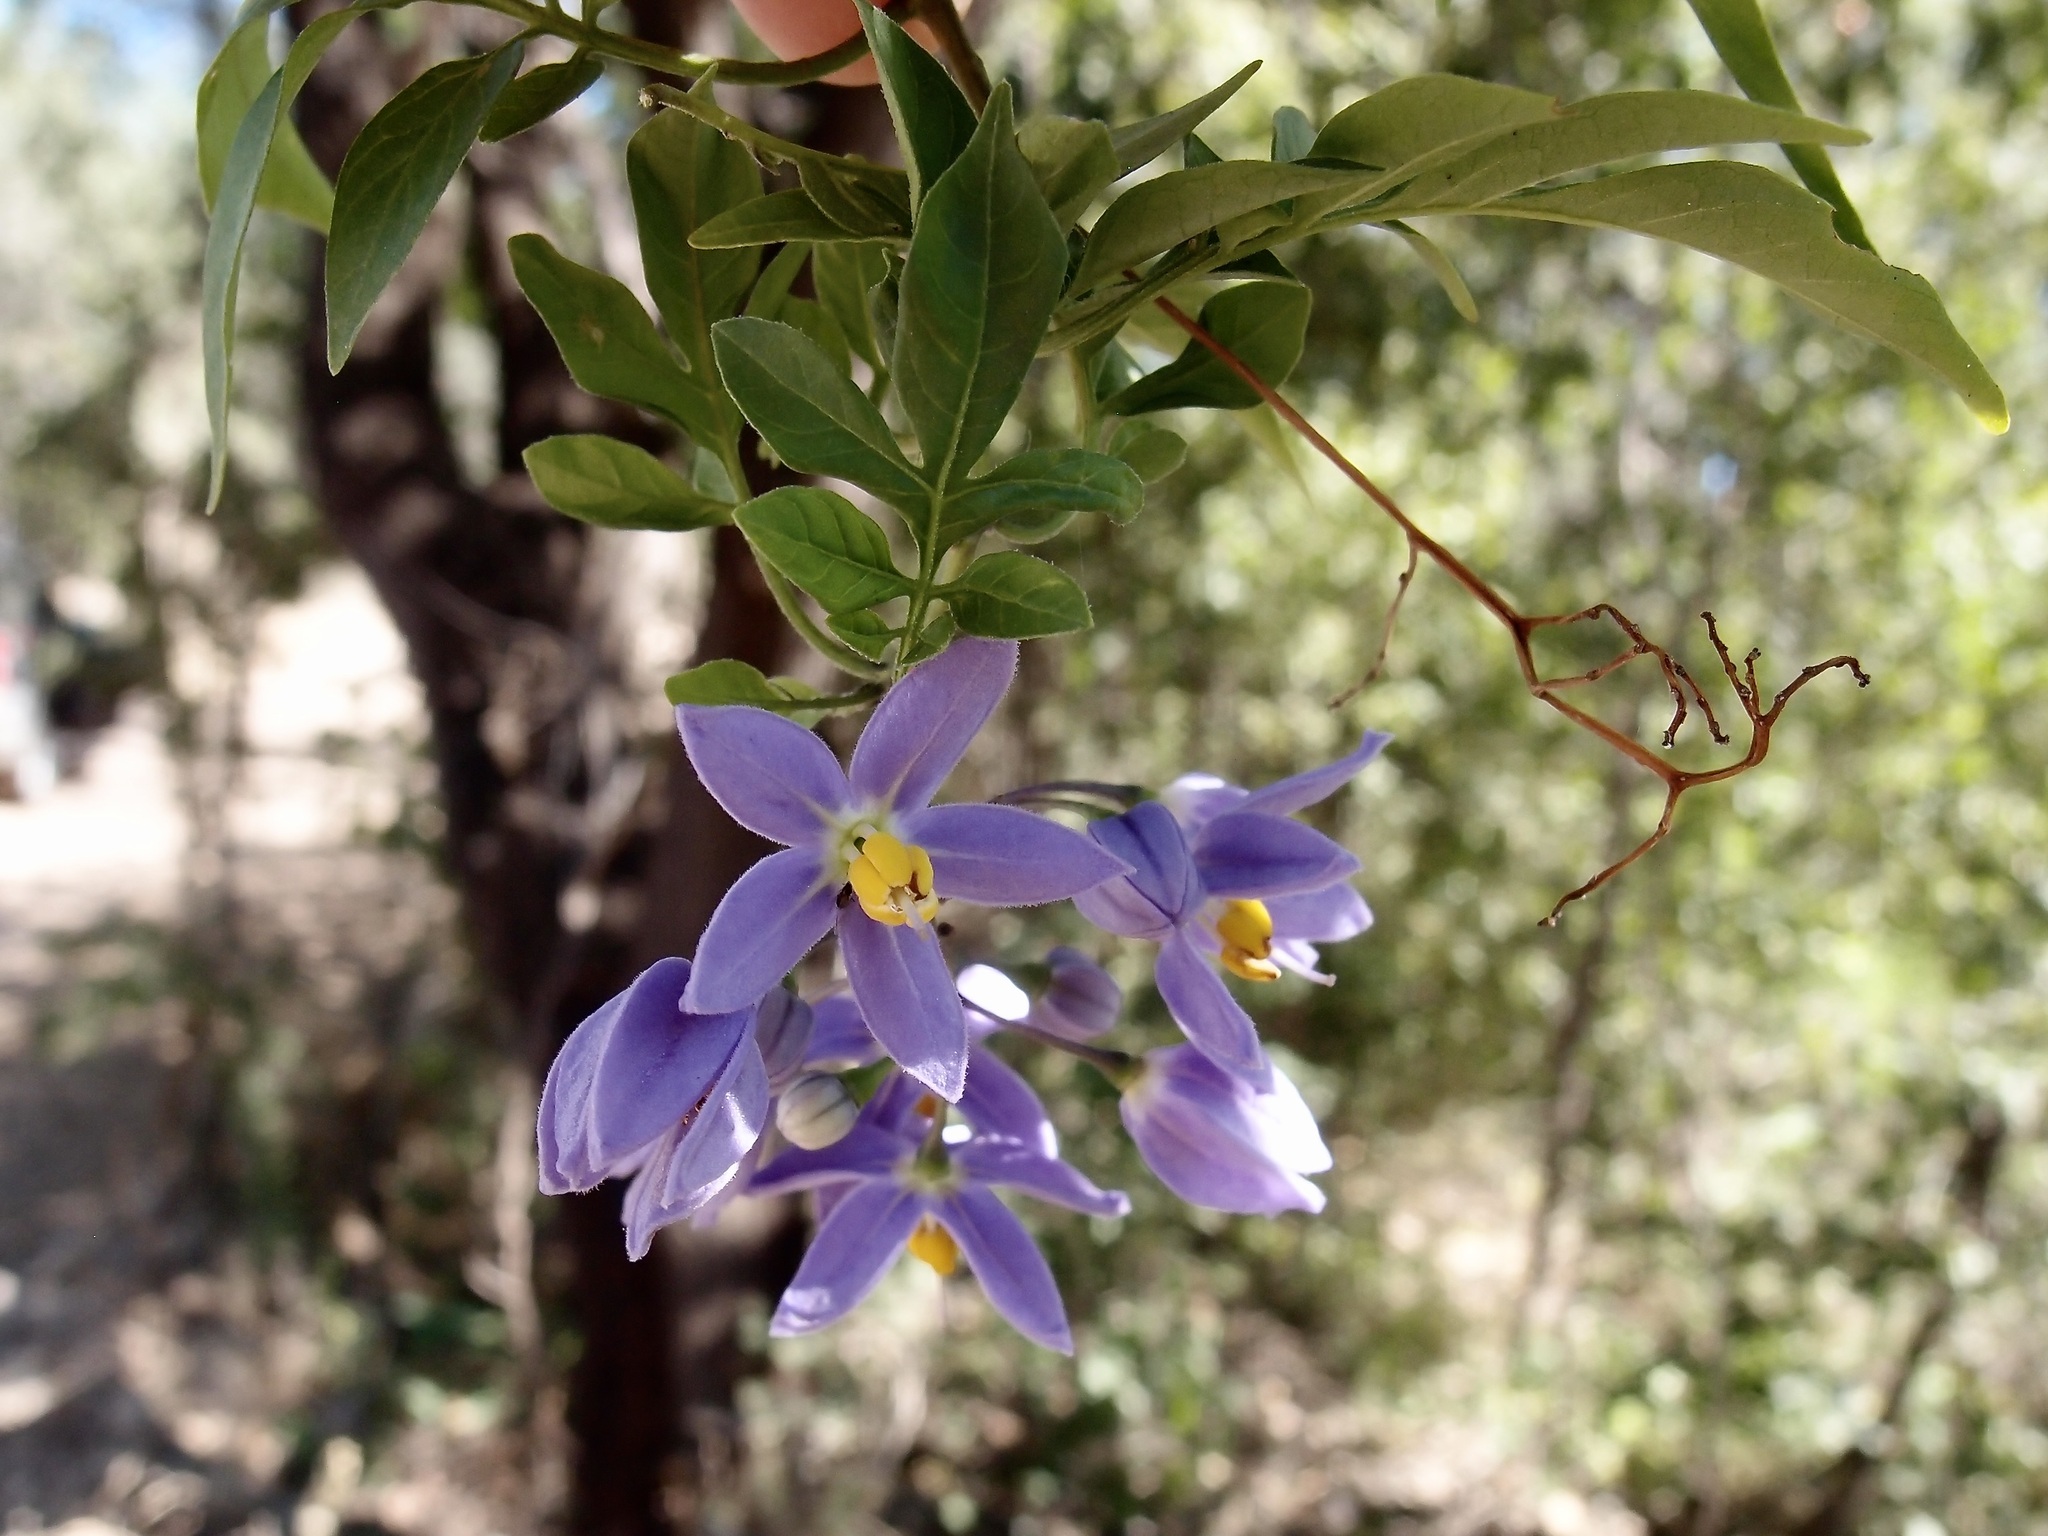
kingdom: Plantae
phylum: Tracheophyta
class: Magnoliopsida
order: Solanales
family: Solanaceae
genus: Solanum
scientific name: Solanum seaforthianum
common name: Brazilian nightshade
